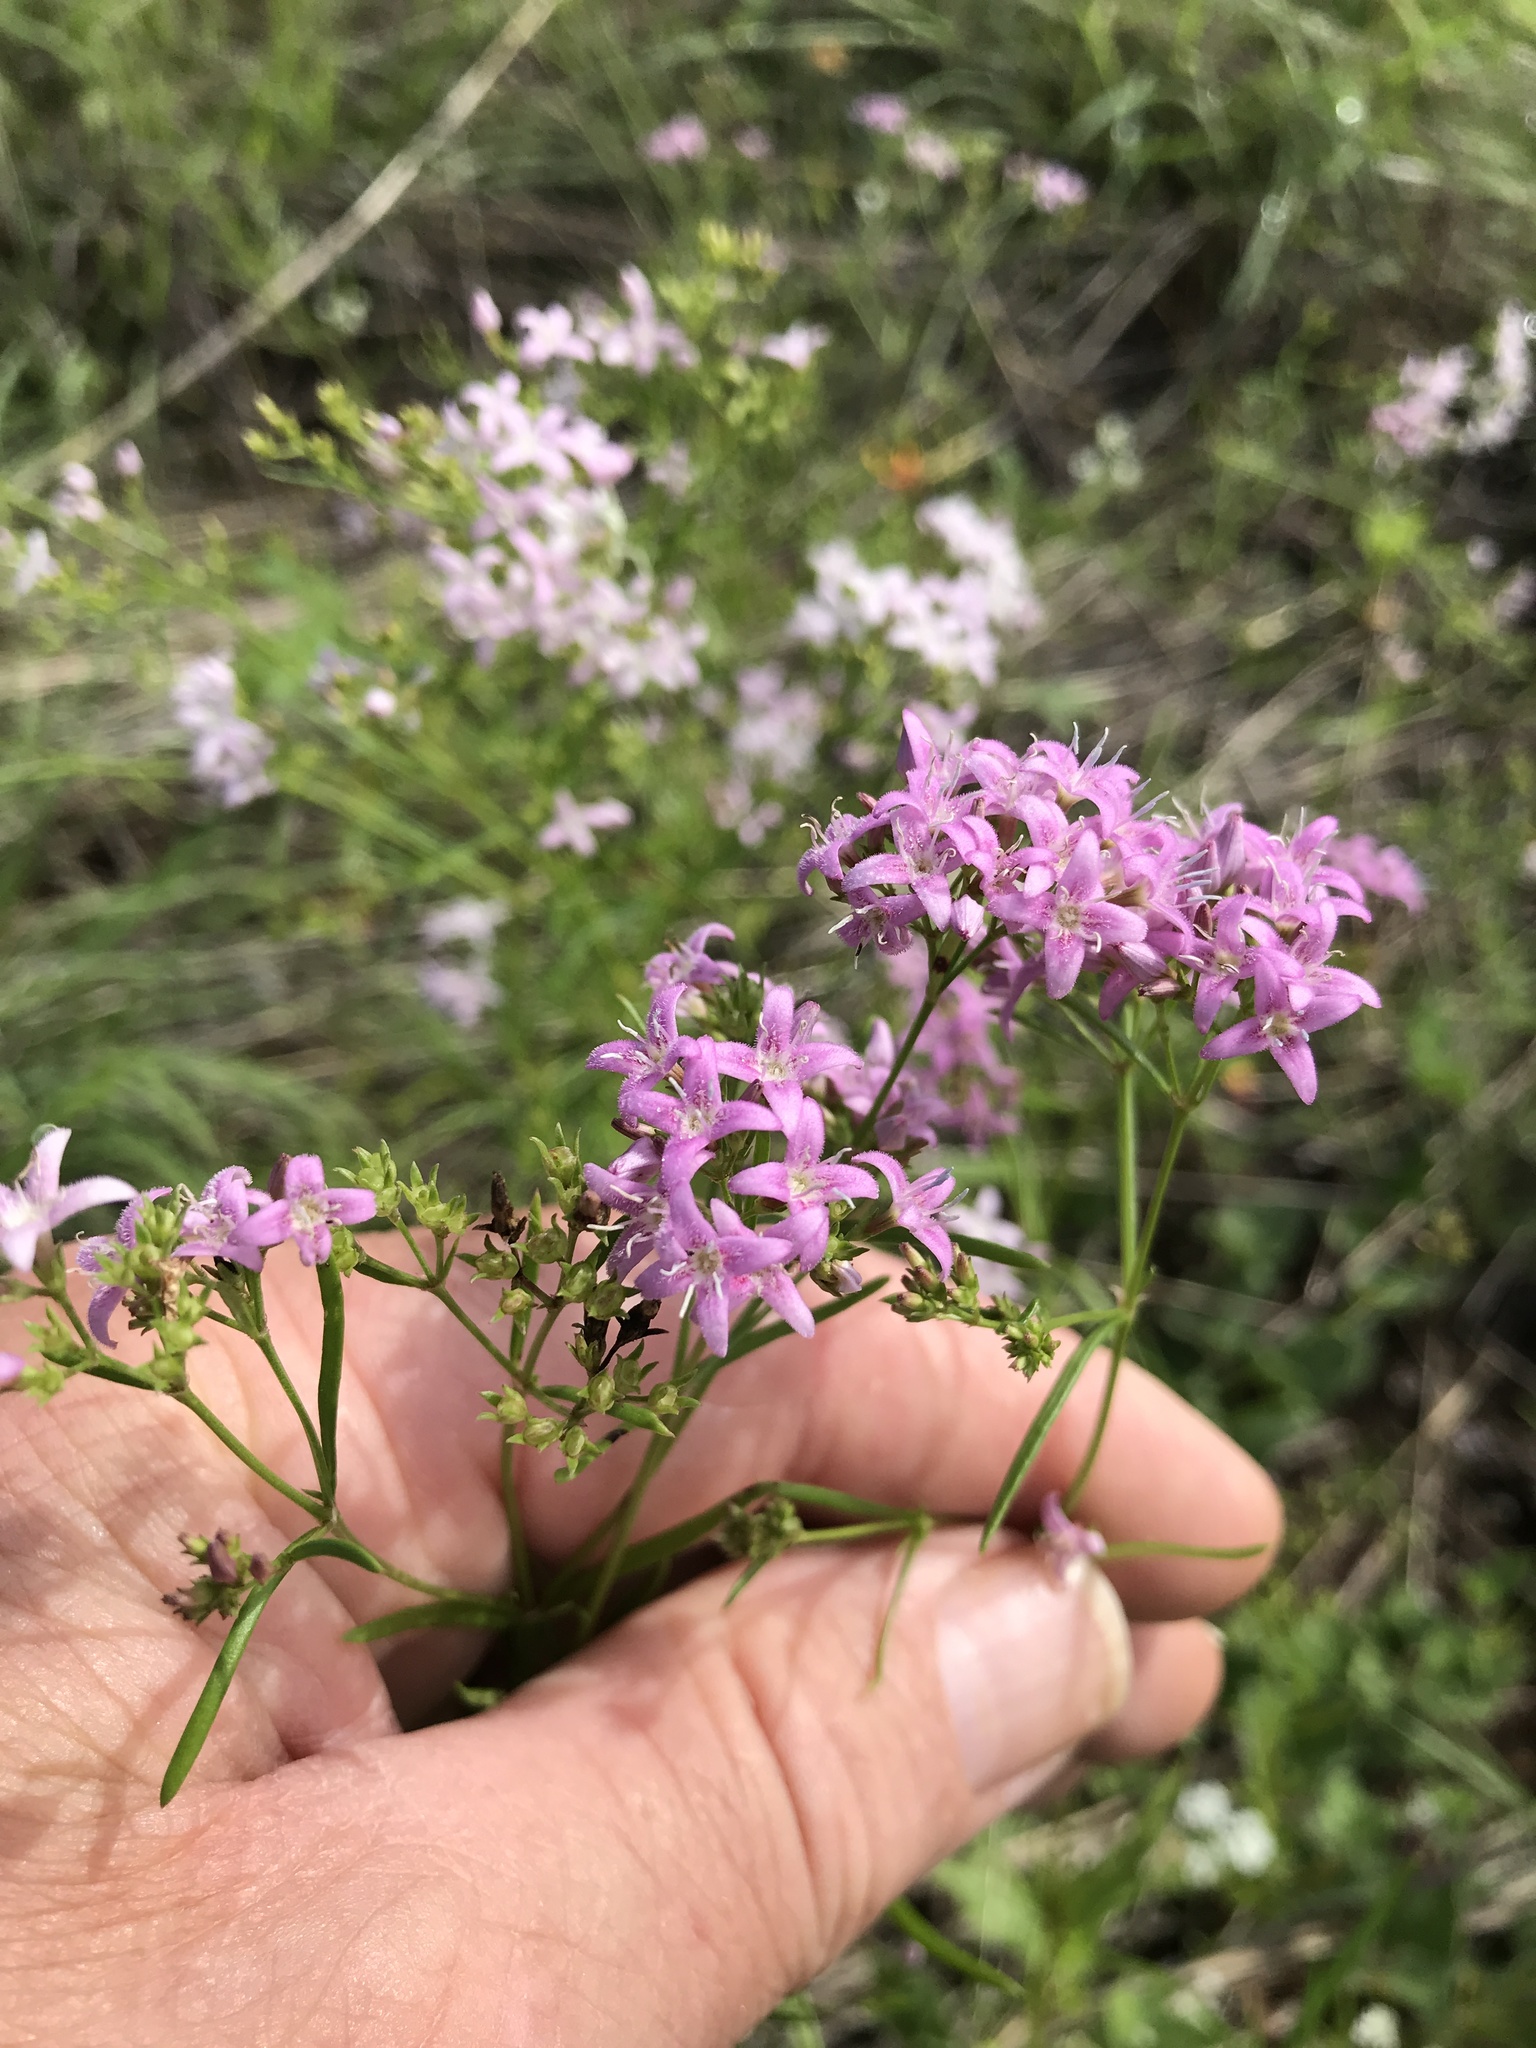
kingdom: Plantae
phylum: Tracheophyta
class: Magnoliopsida
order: Gentianales
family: Rubiaceae
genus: Stenaria
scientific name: Stenaria nigricans
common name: Diamondflowers
